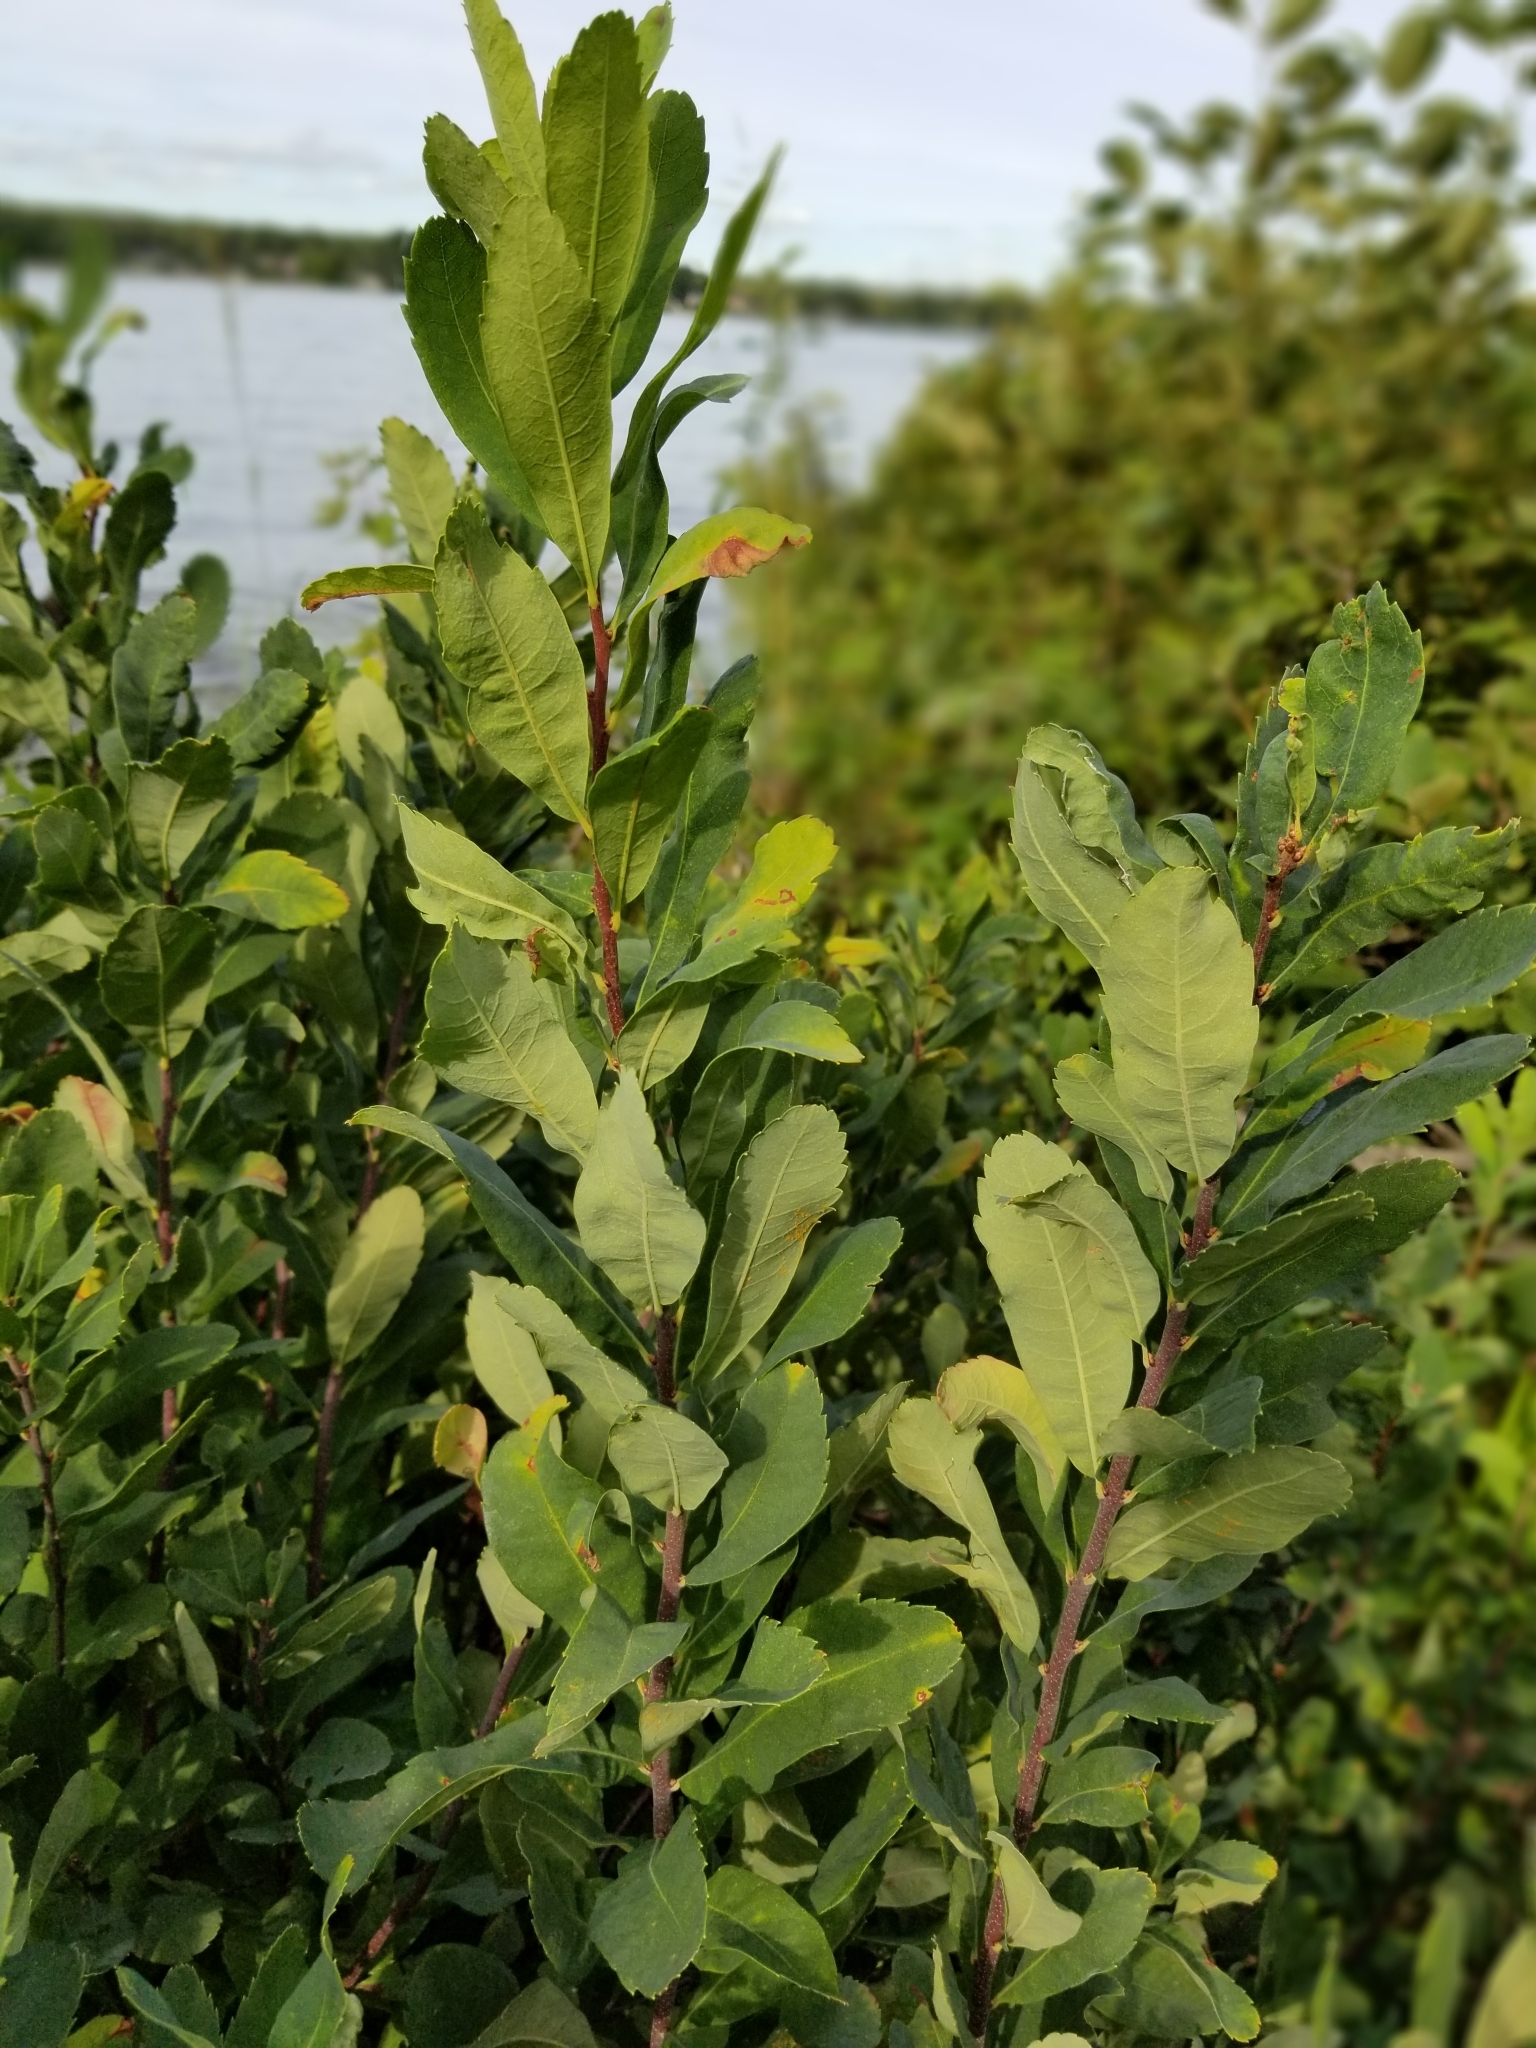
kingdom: Plantae
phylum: Tracheophyta
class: Magnoliopsida
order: Fagales
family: Myricaceae
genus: Myrica
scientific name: Myrica gale
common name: Sweet gale
